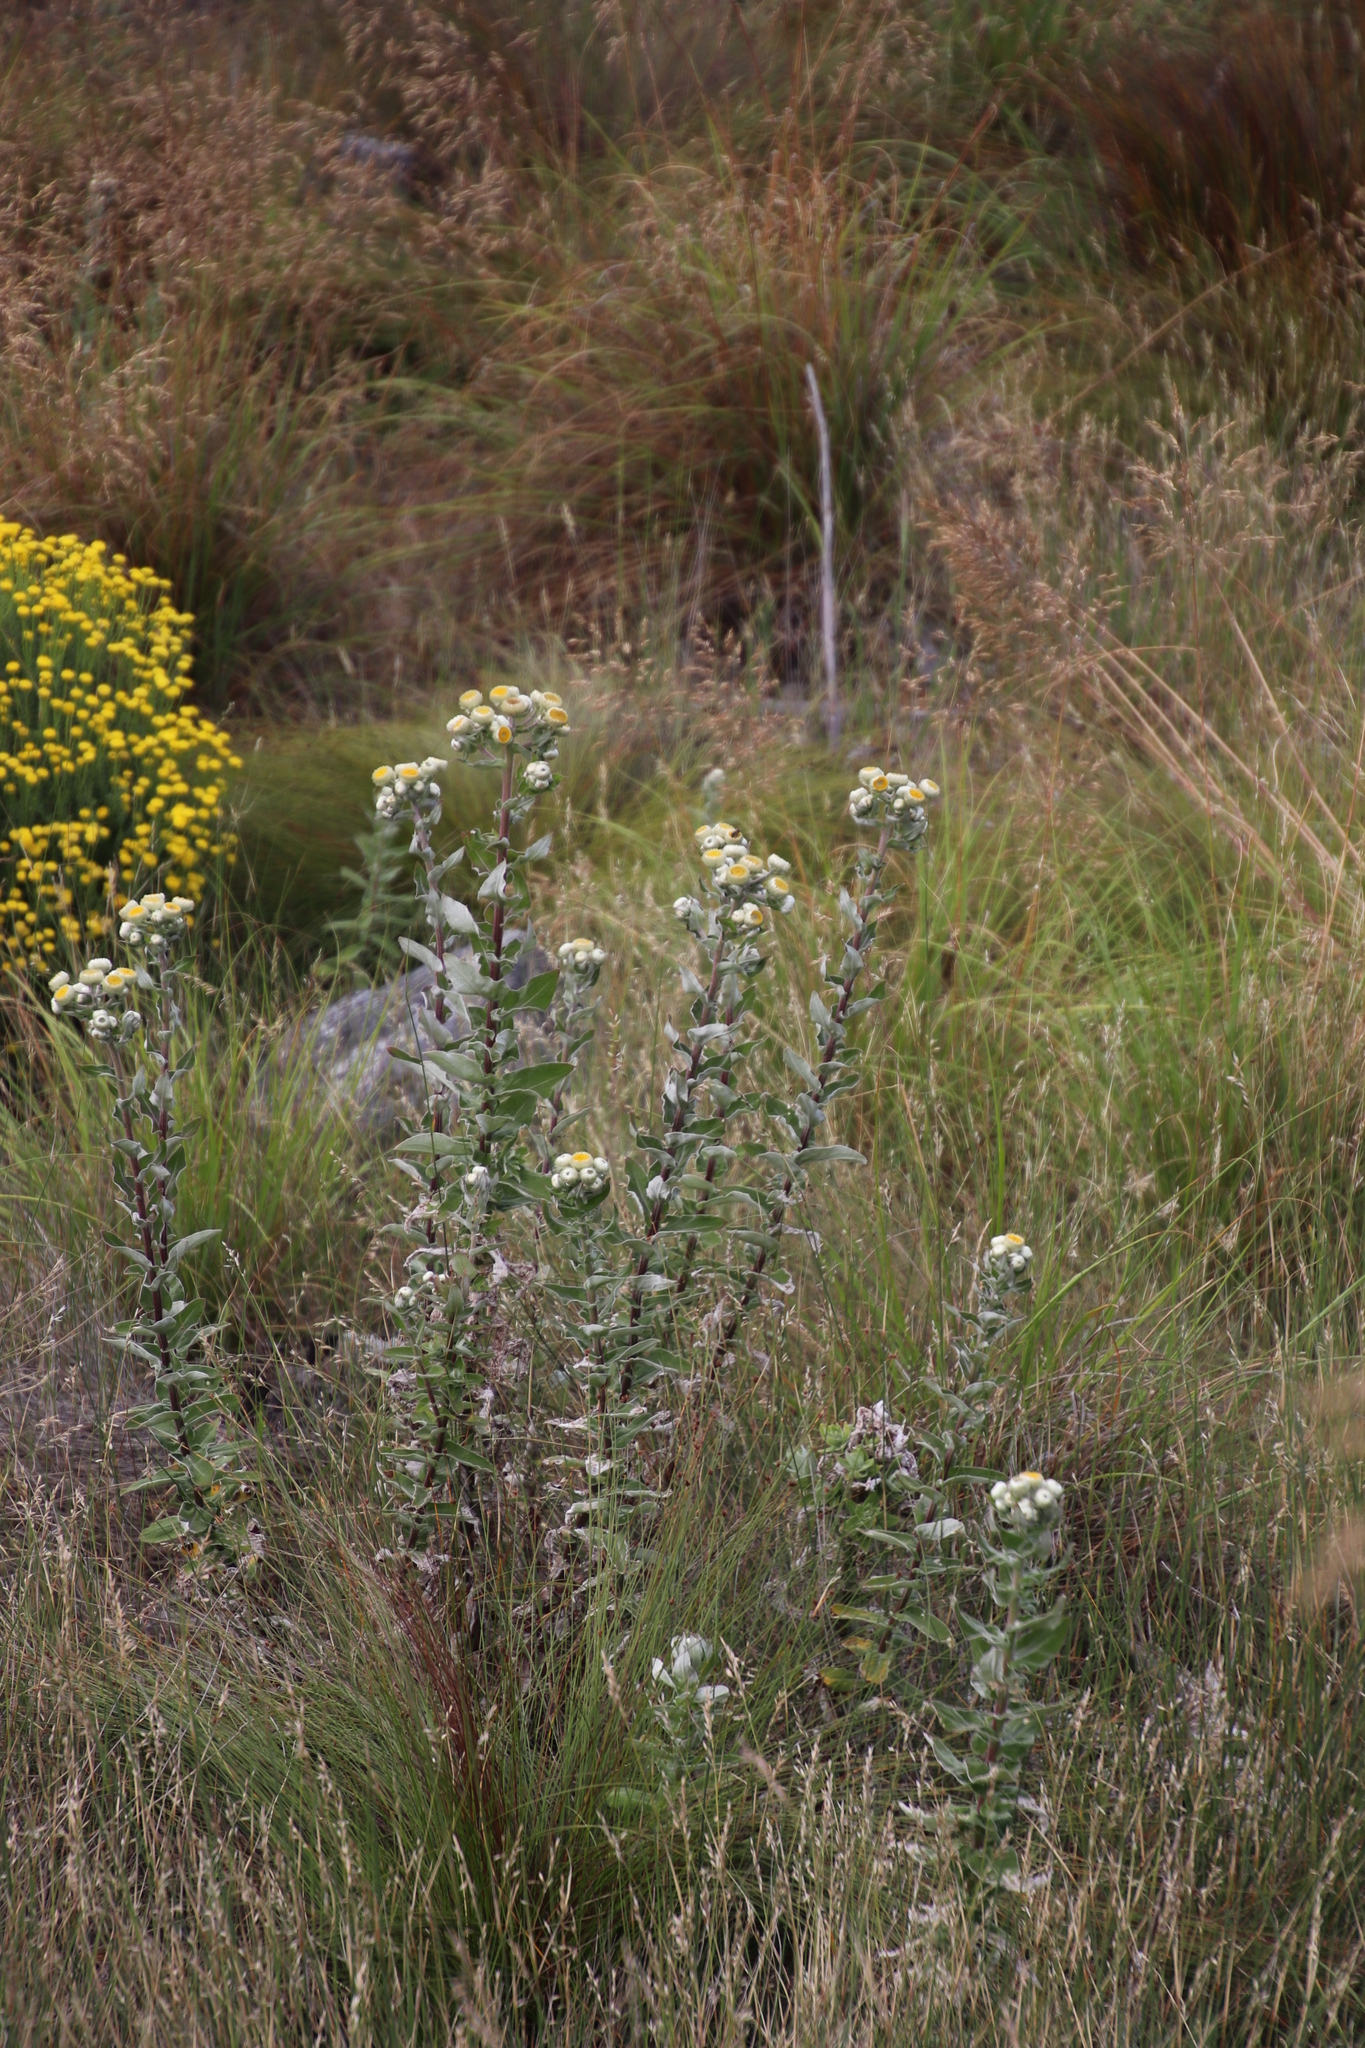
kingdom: Plantae
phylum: Tracheophyta
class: Magnoliopsida
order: Asterales
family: Asteraceae
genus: Helichrysum
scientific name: Helichrysum foetidum
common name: Stinking everlasting
